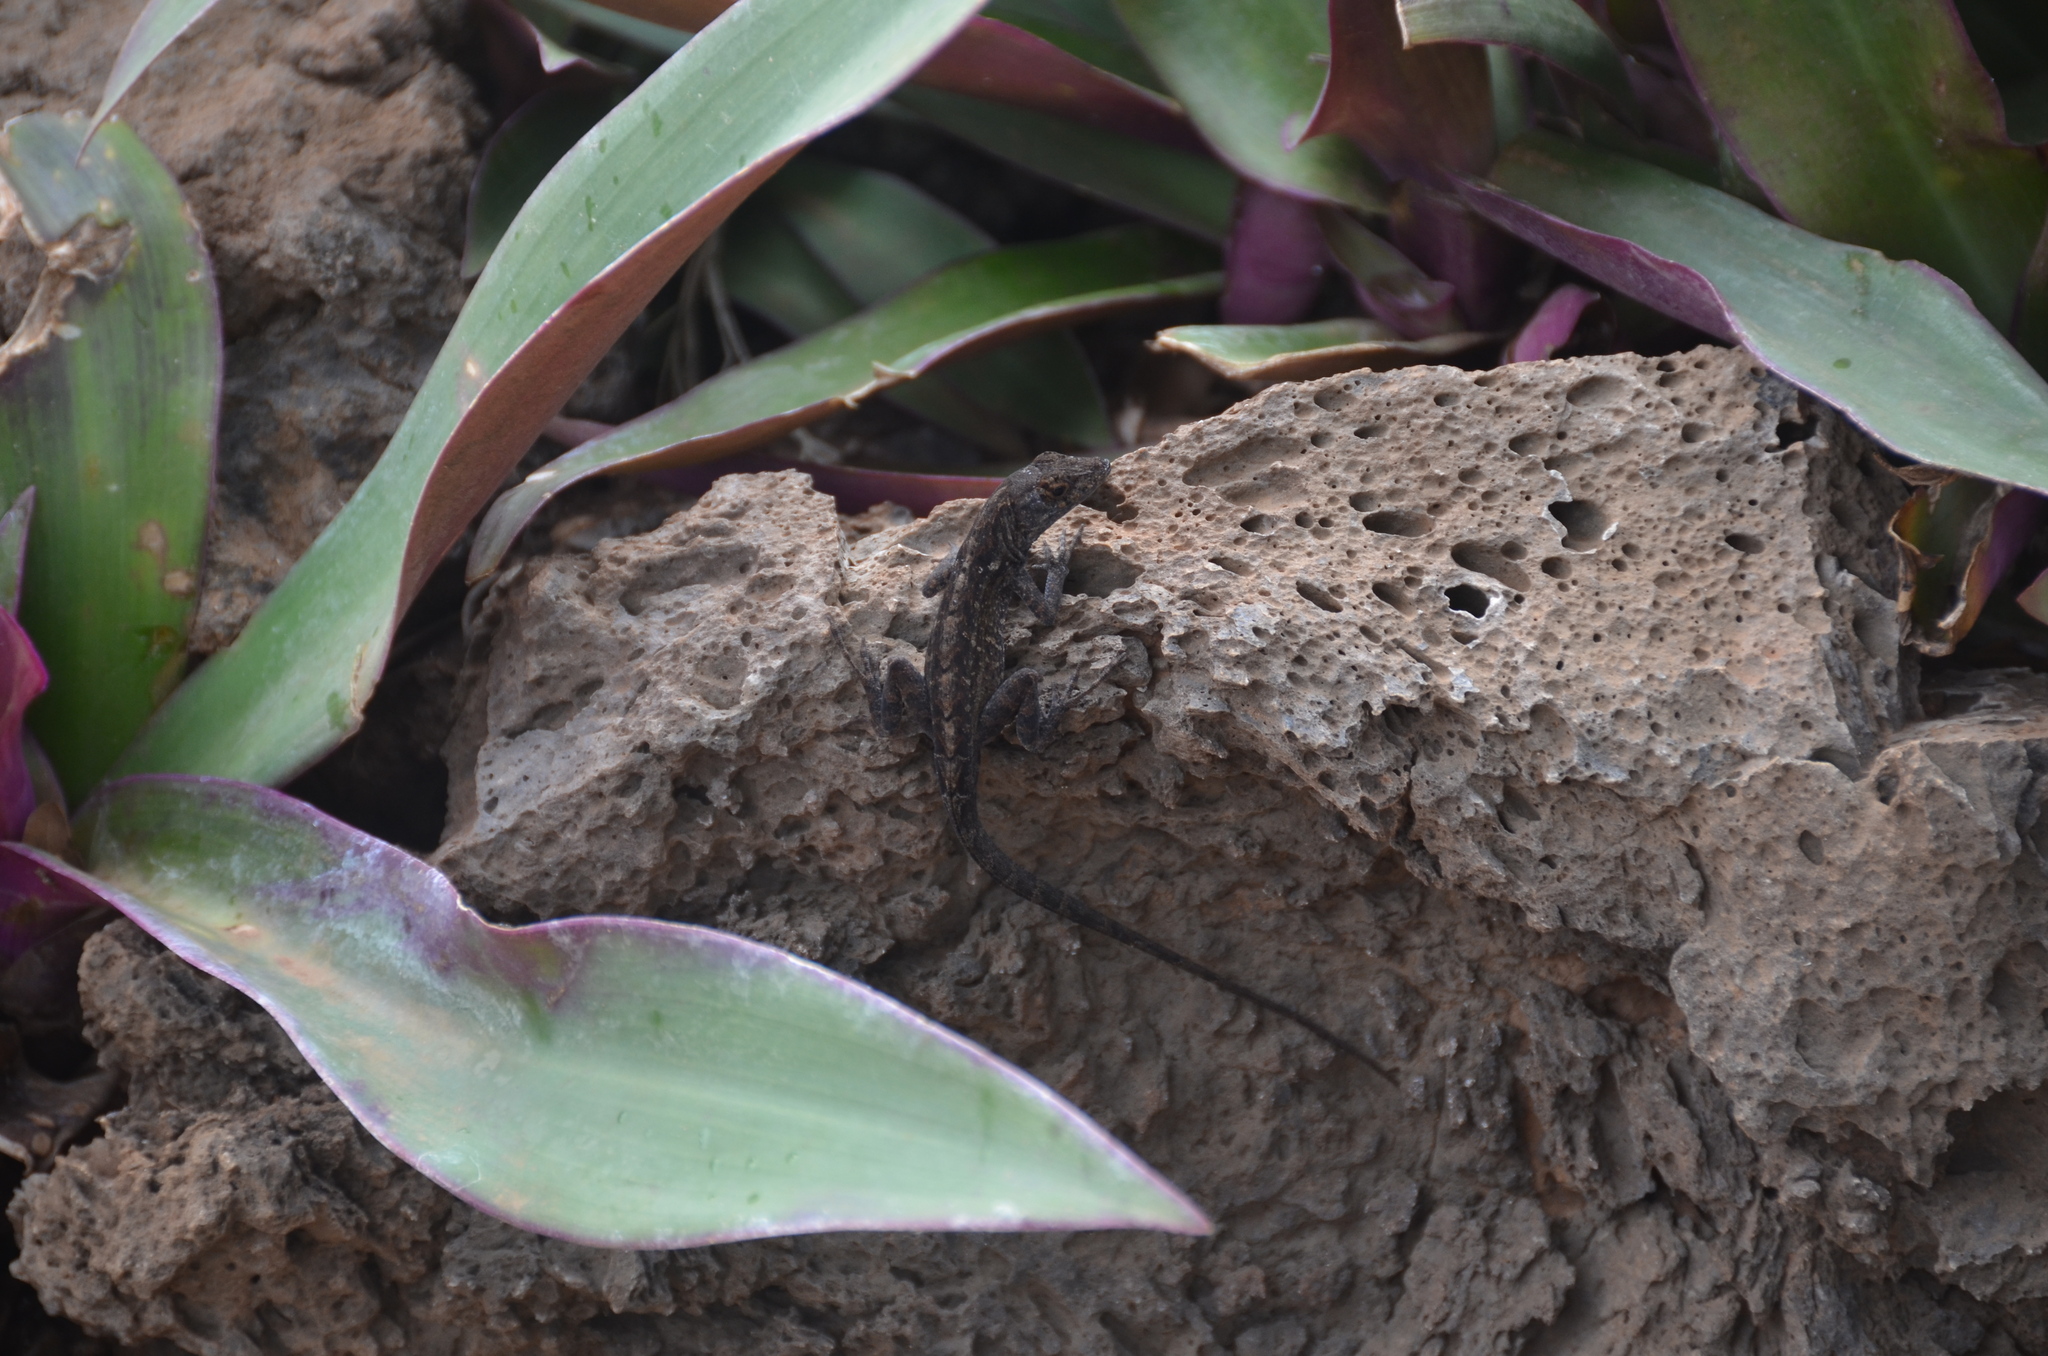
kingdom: Animalia
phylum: Chordata
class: Squamata
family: Dactyloidae
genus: Anolis
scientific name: Anolis sagrei
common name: Brown anole
